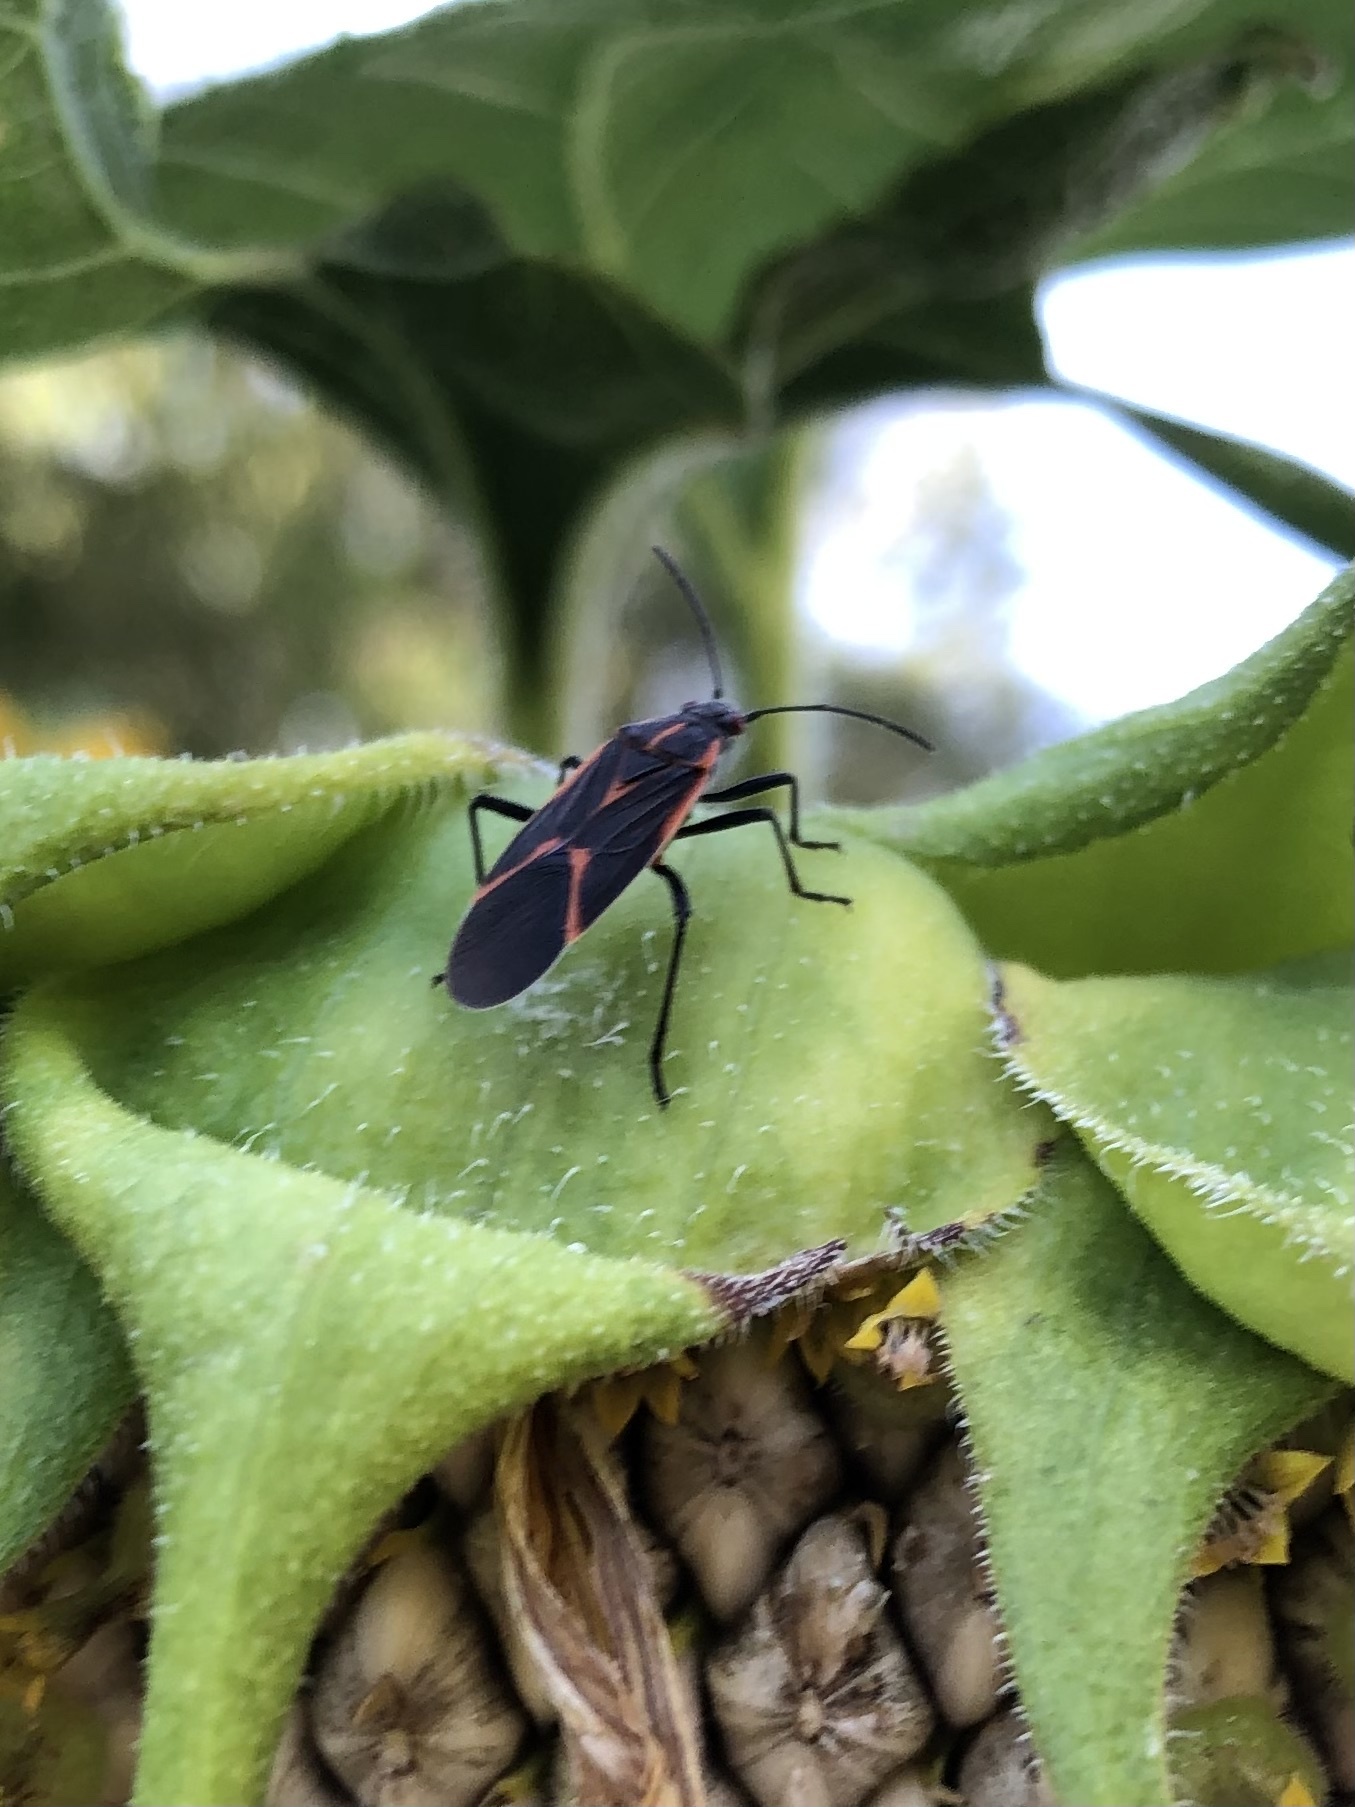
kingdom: Animalia
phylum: Arthropoda
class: Insecta
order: Hemiptera
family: Rhopalidae
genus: Boisea
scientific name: Boisea trivittata
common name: Boxelder bug
